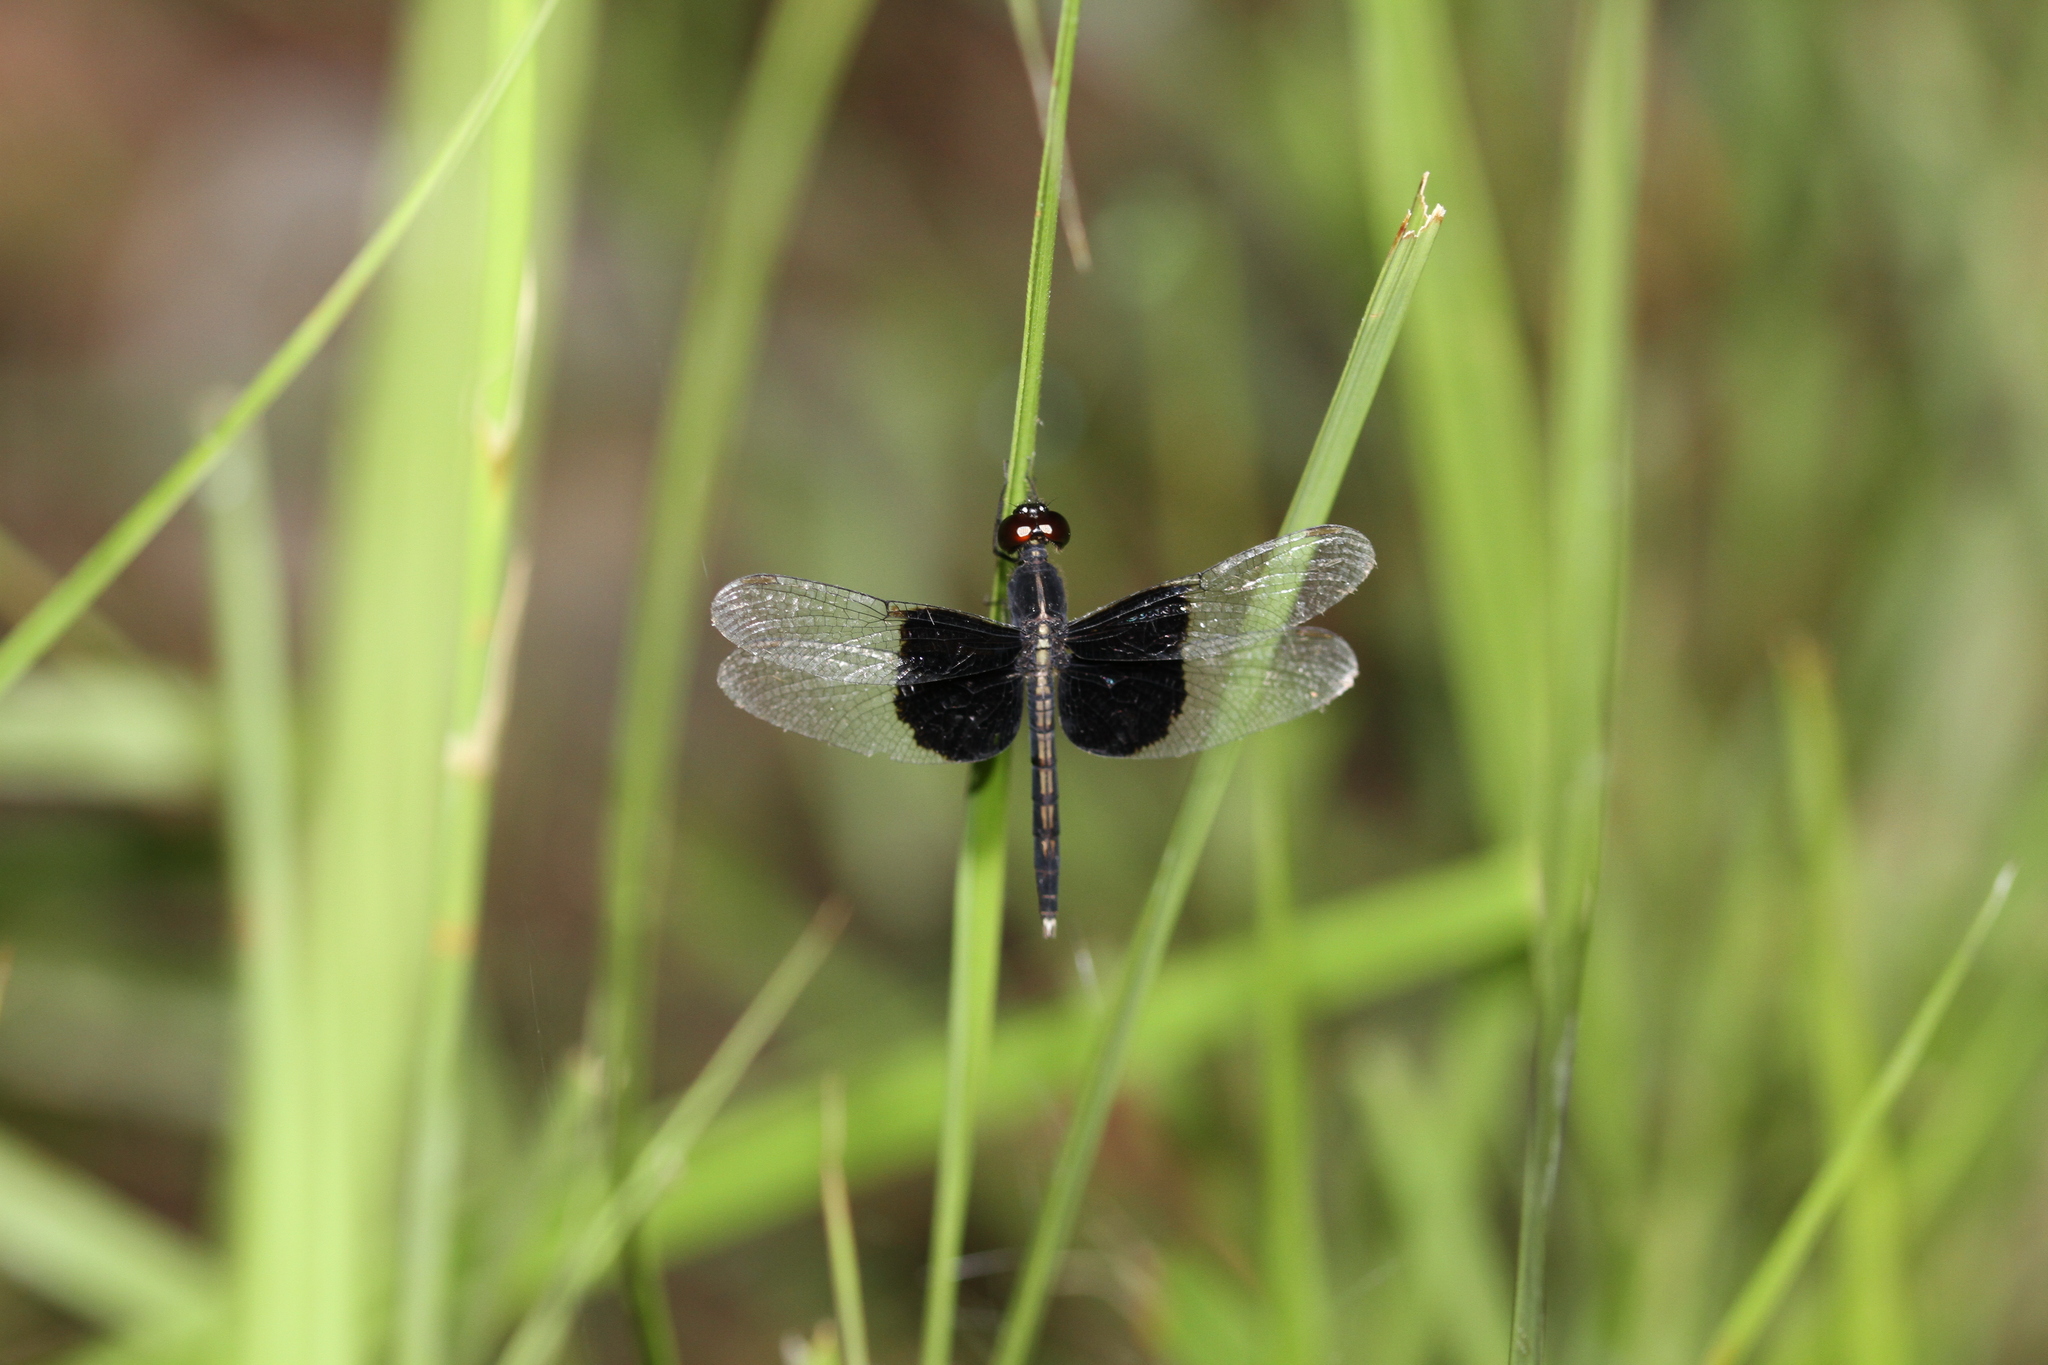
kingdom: Animalia
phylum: Arthropoda
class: Insecta
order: Odonata
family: Libellulidae
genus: Neurothemis
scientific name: Neurothemis feralis
